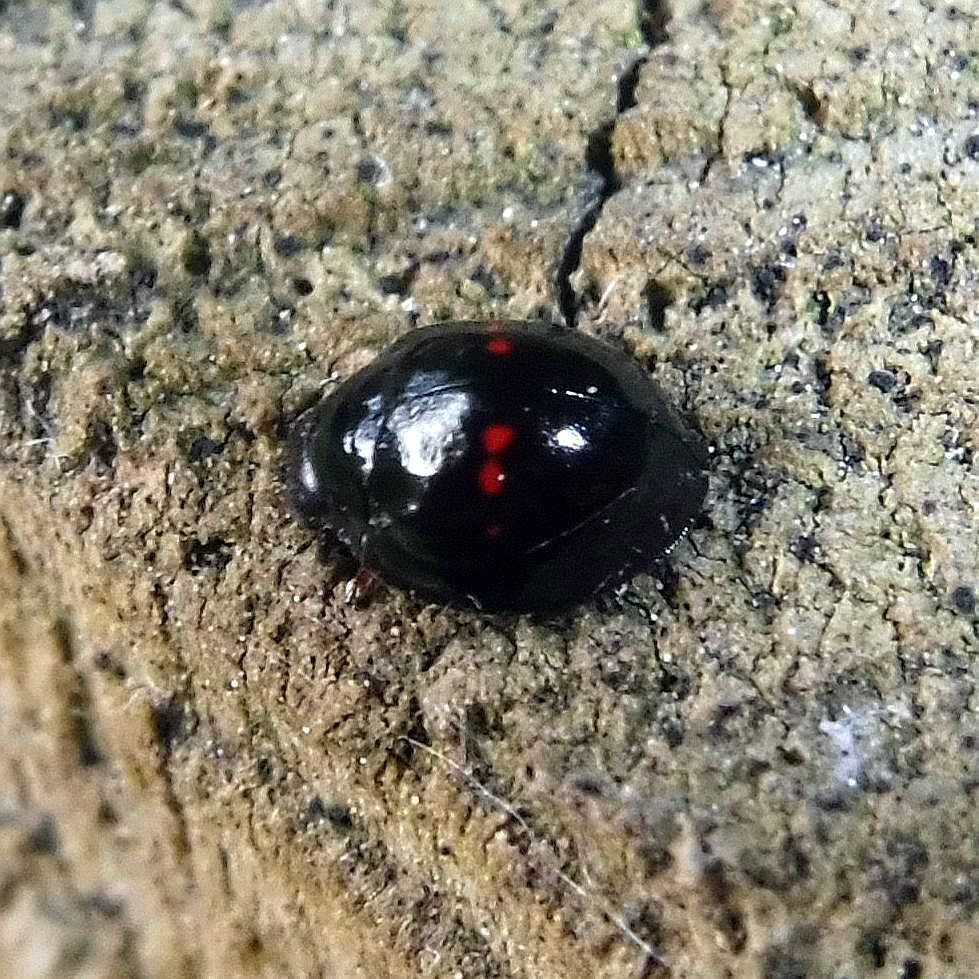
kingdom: Animalia
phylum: Arthropoda
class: Insecta
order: Coleoptera
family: Coccinellidae
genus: Chilocorus
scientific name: Chilocorus bipustulatus
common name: Heather ladybird
